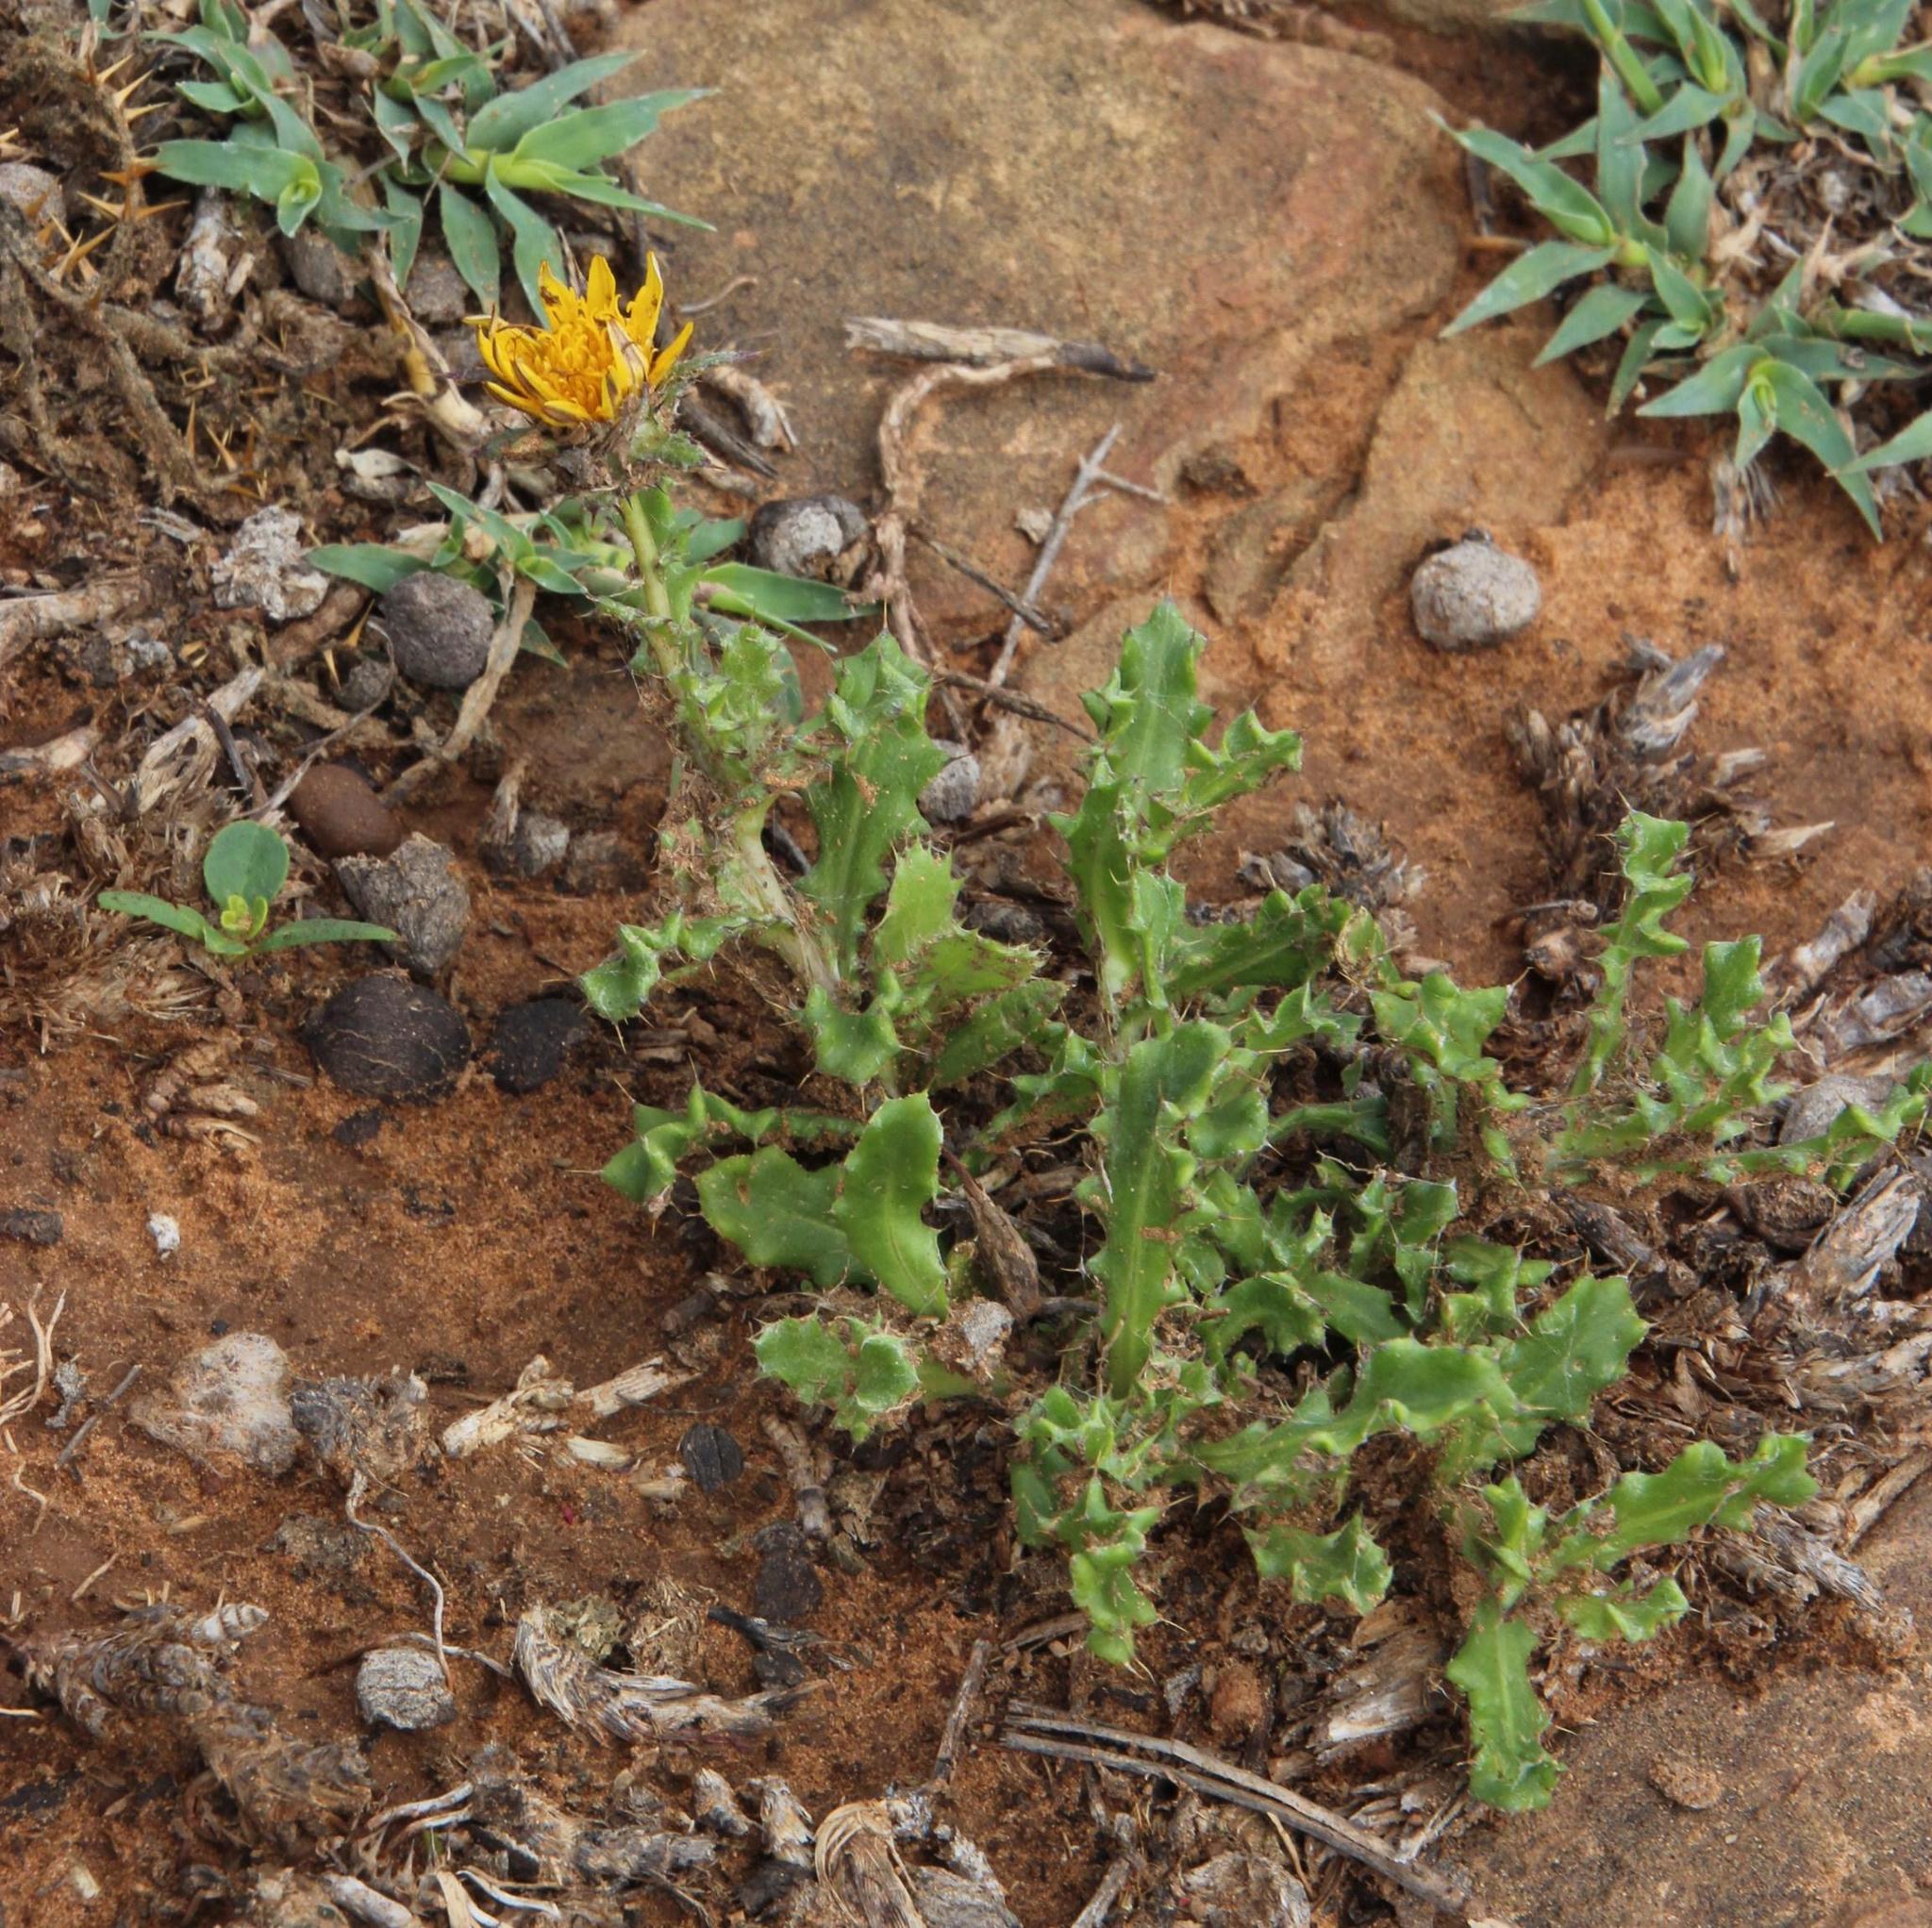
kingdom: Plantae
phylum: Tracheophyta
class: Magnoliopsida
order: Asterales
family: Asteraceae
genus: Cuspidia
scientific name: Cuspidia cernua
